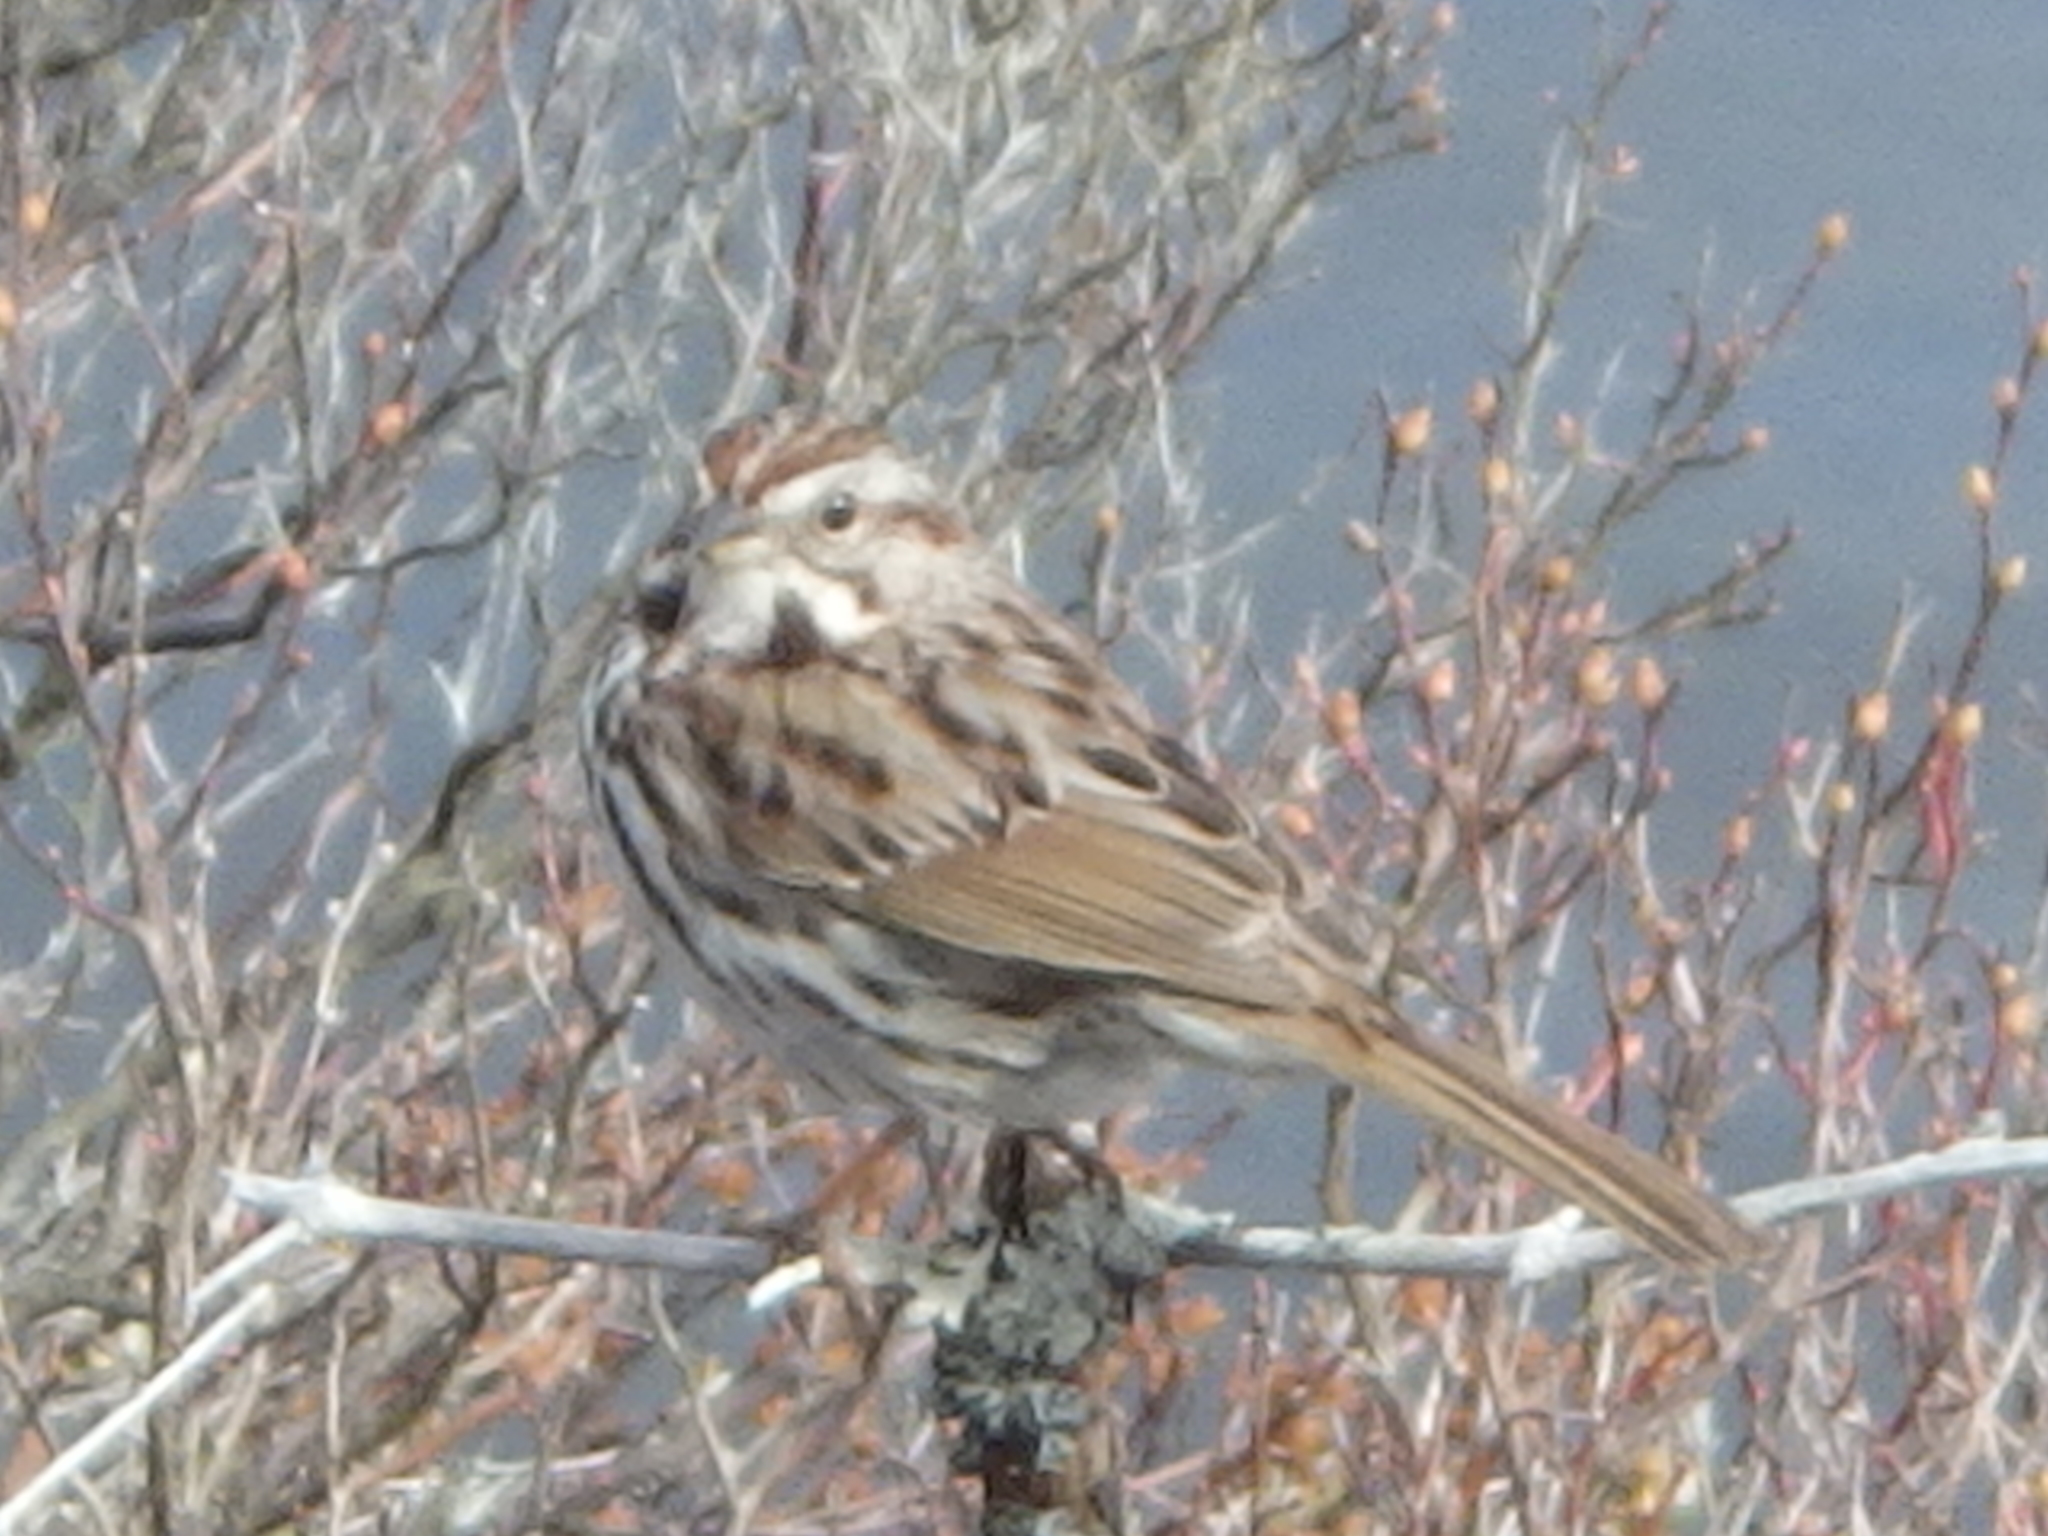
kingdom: Animalia
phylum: Chordata
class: Aves
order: Passeriformes
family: Passerellidae
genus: Melospiza
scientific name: Melospiza melodia
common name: Song sparrow
